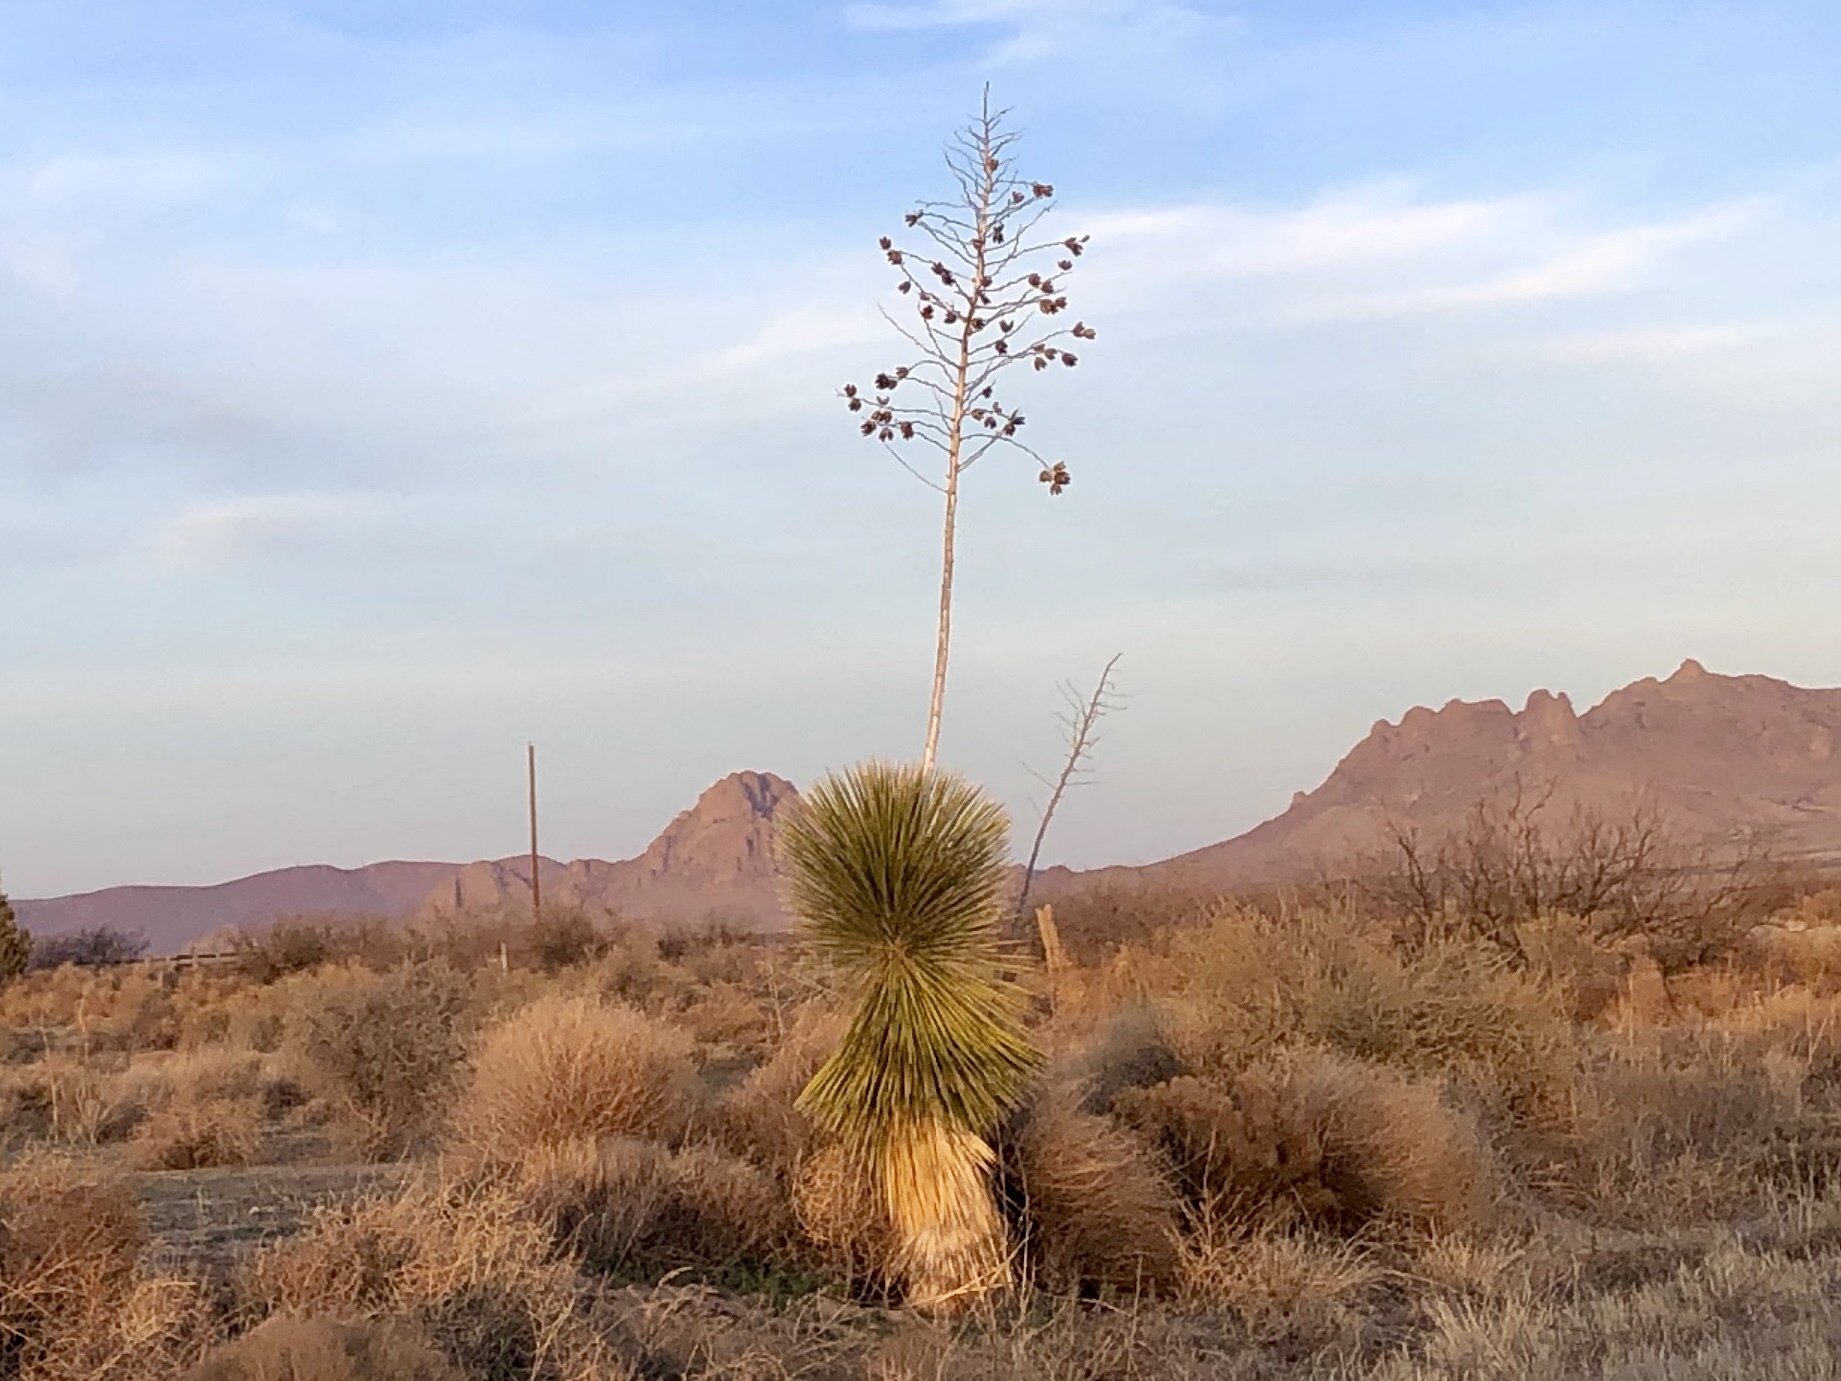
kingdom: Plantae
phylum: Tracheophyta
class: Liliopsida
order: Asparagales
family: Asparagaceae
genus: Yucca
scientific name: Yucca elata
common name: Palmella
